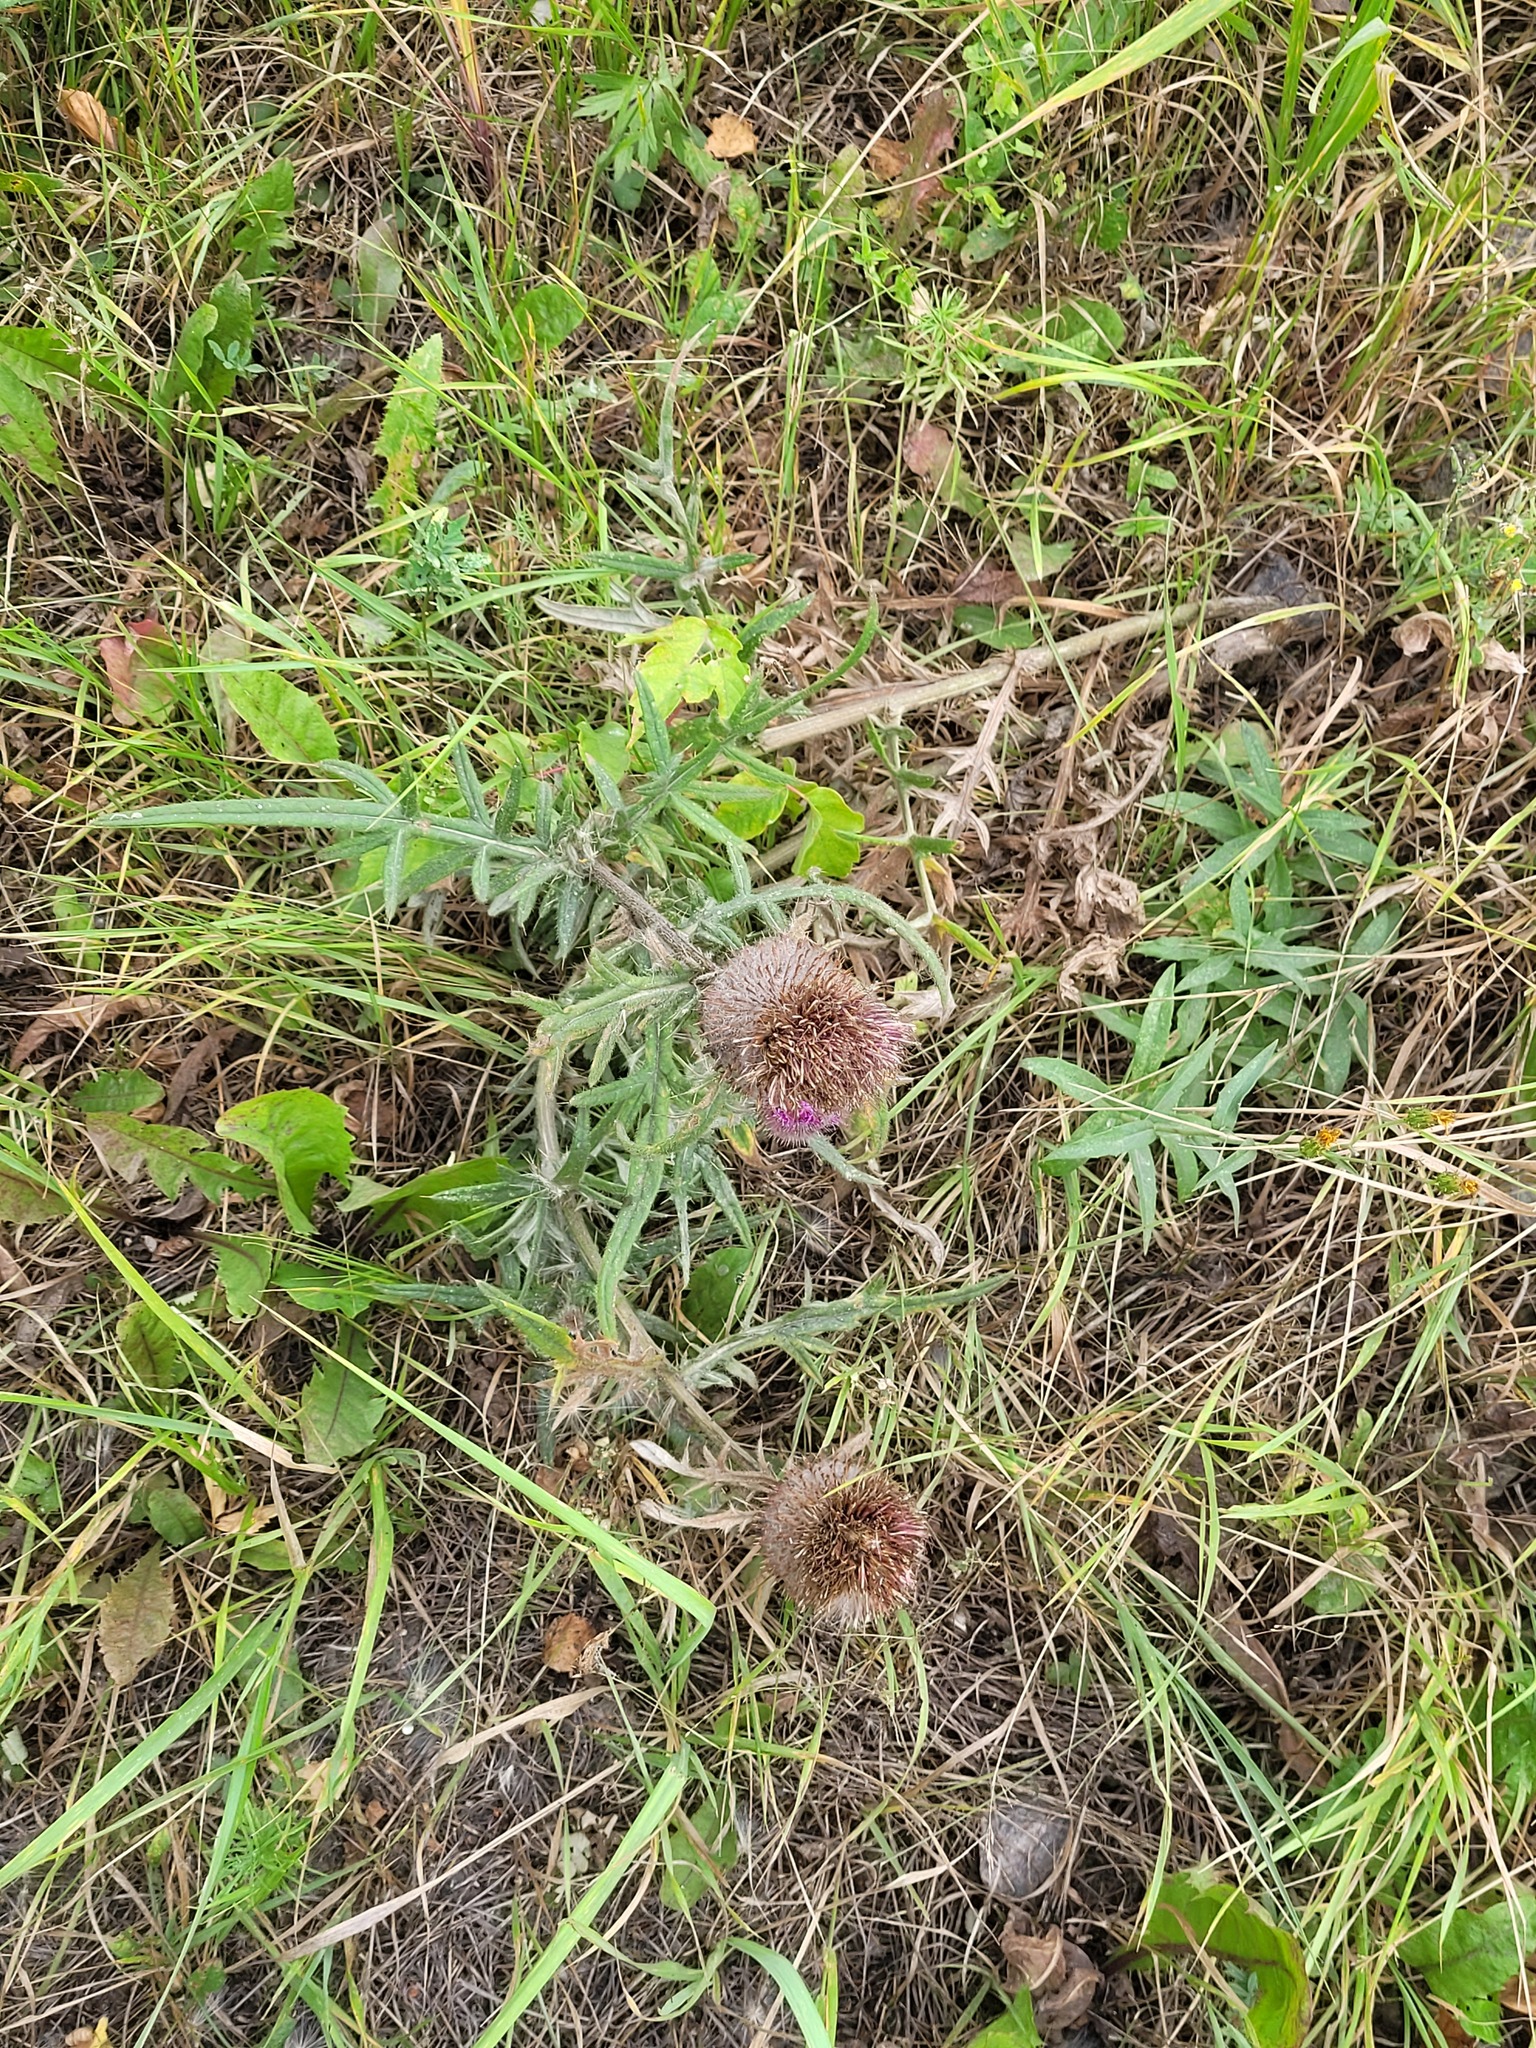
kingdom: Plantae
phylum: Tracheophyta
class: Magnoliopsida
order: Asterales
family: Asteraceae
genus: Lophiolepis
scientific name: Lophiolepis decussata
